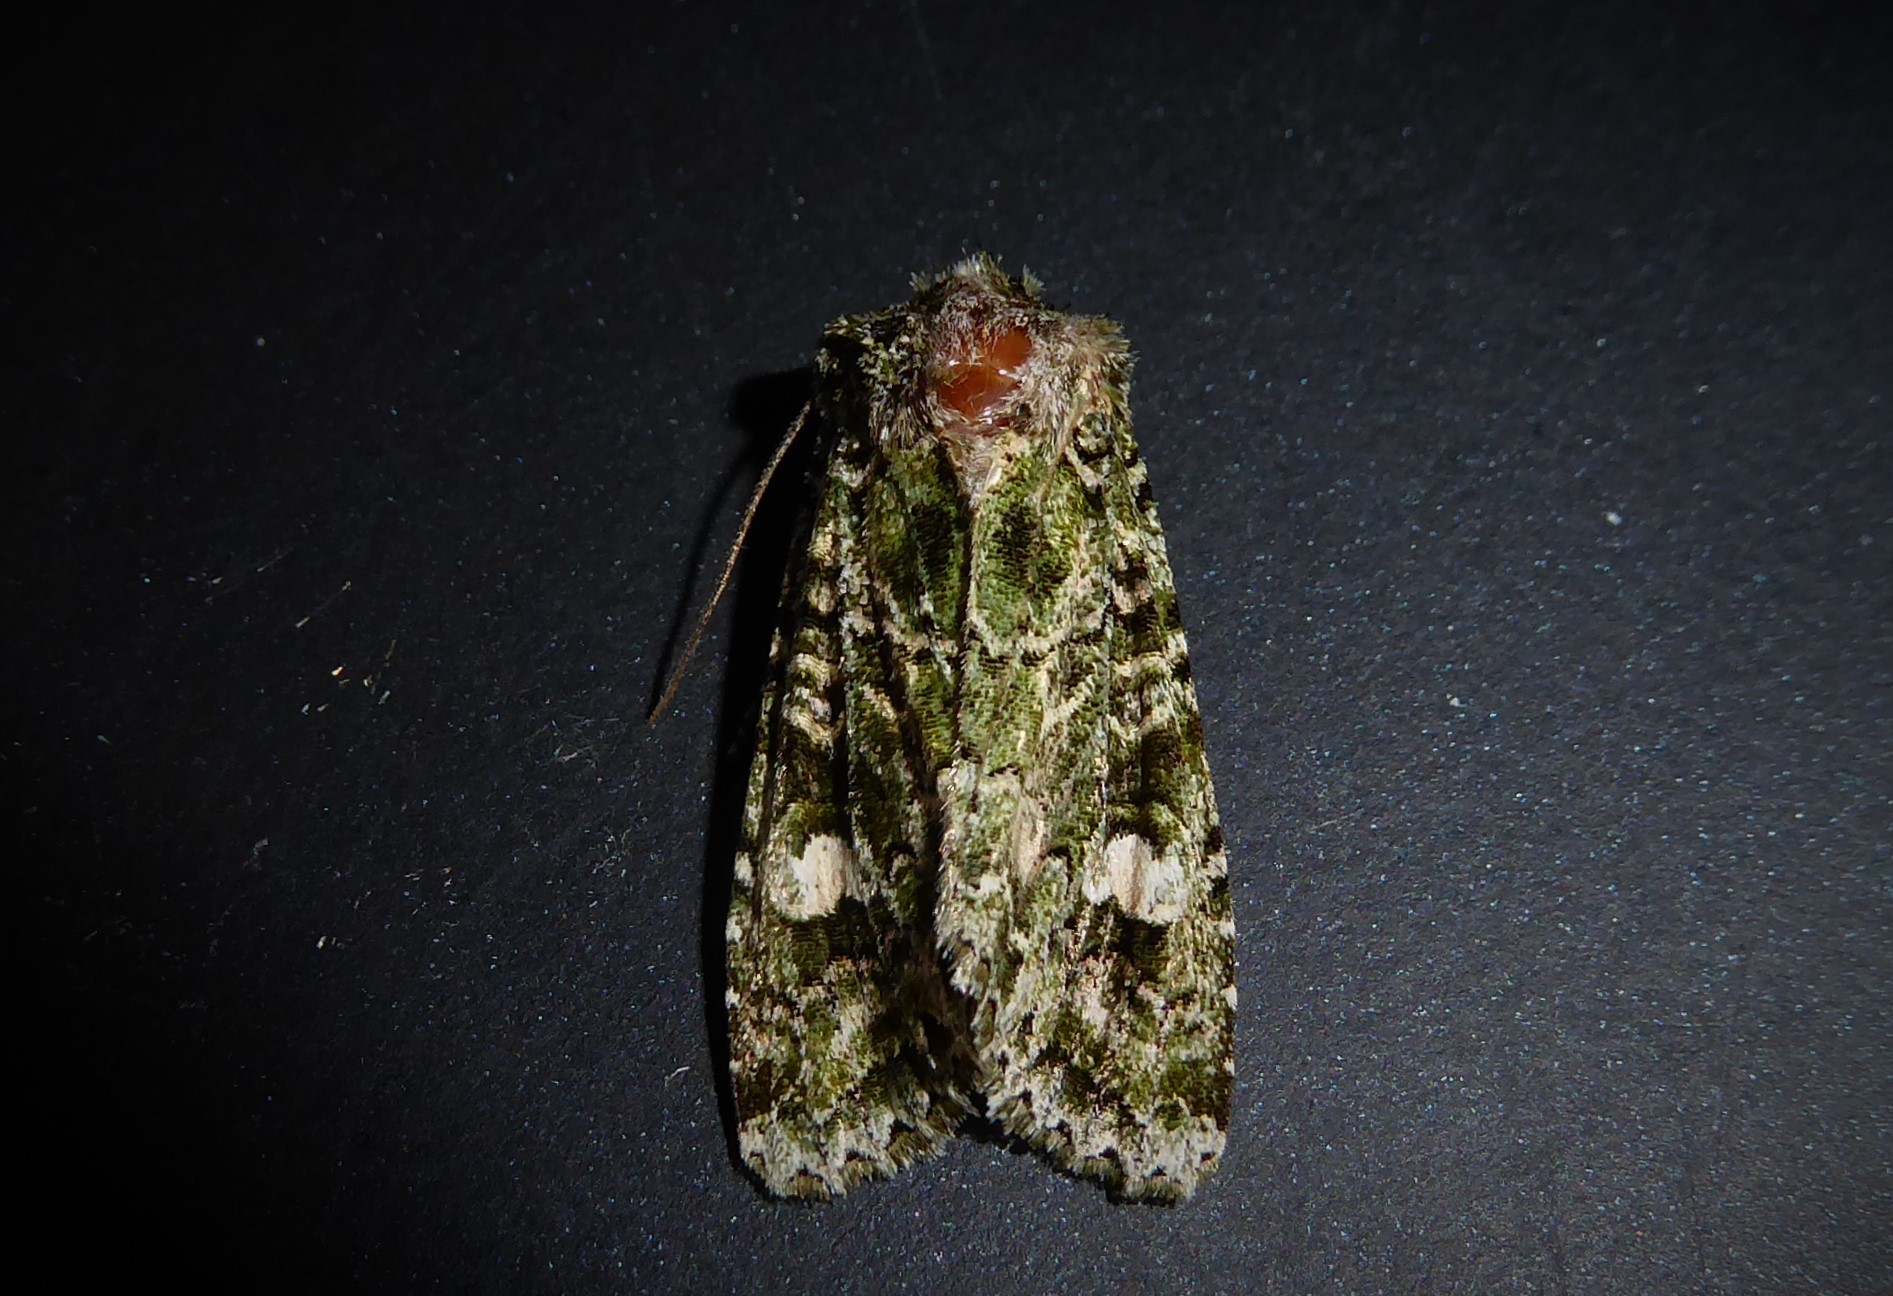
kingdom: Animalia
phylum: Arthropoda
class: Insecta
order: Lepidoptera
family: Noctuidae
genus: Ichneutica
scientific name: Ichneutica
